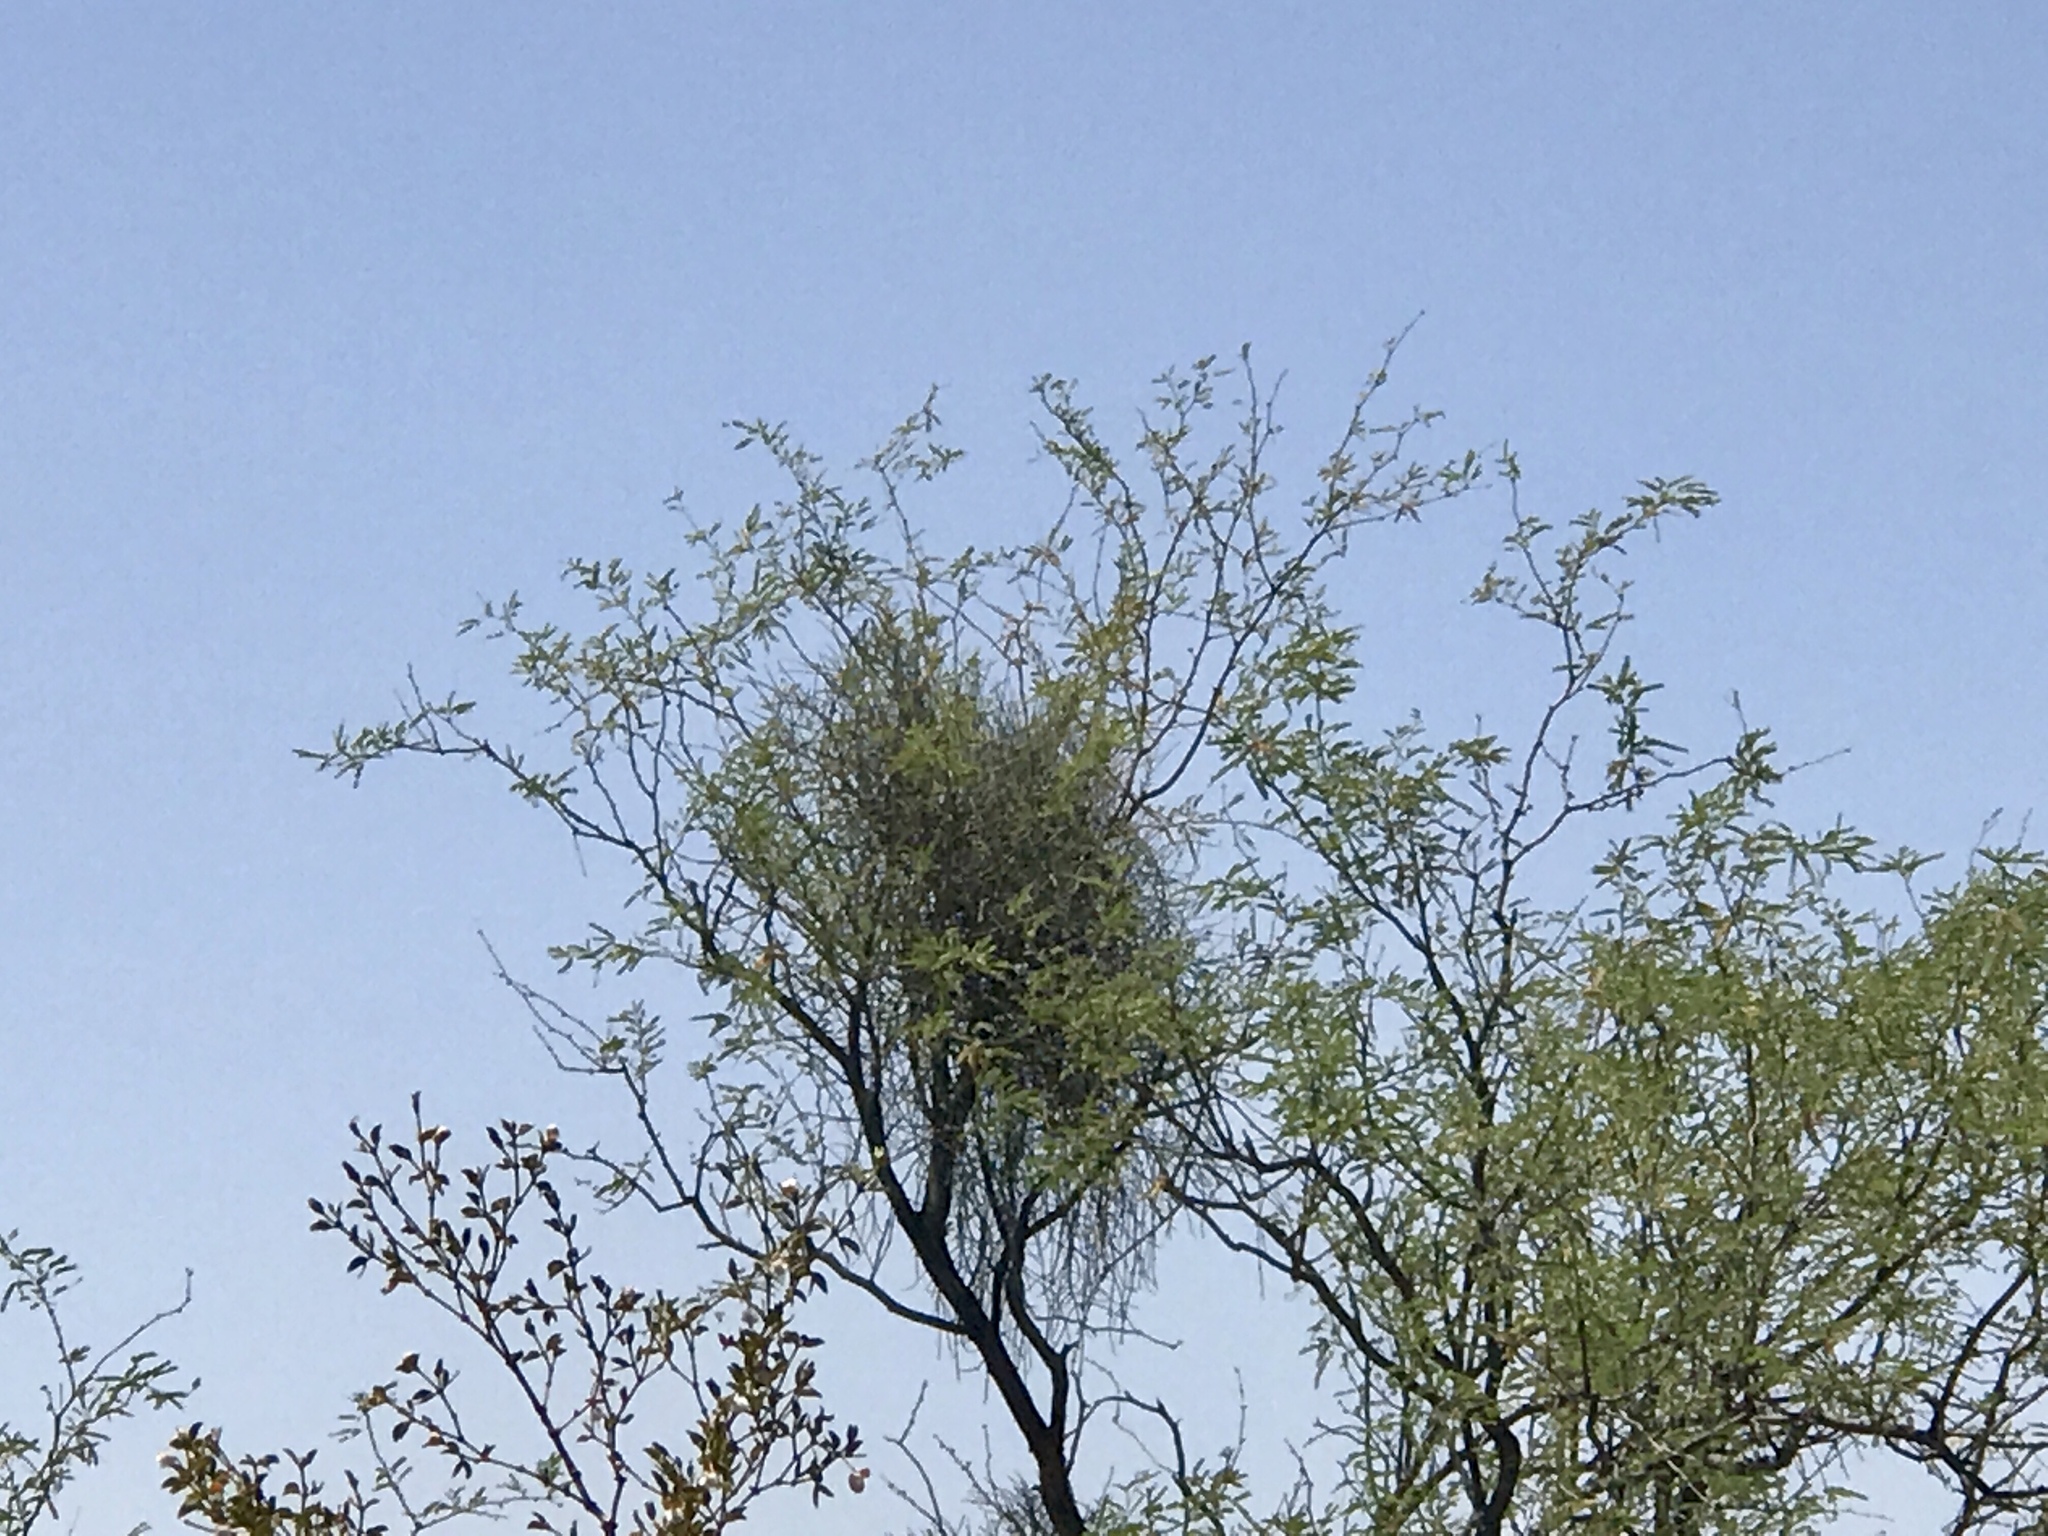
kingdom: Plantae
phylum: Tracheophyta
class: Magnoliopsida
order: Santalales
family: Viscaceae
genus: Phoradendron
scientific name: Phoradendron californicum
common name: Acacia mistletoe
